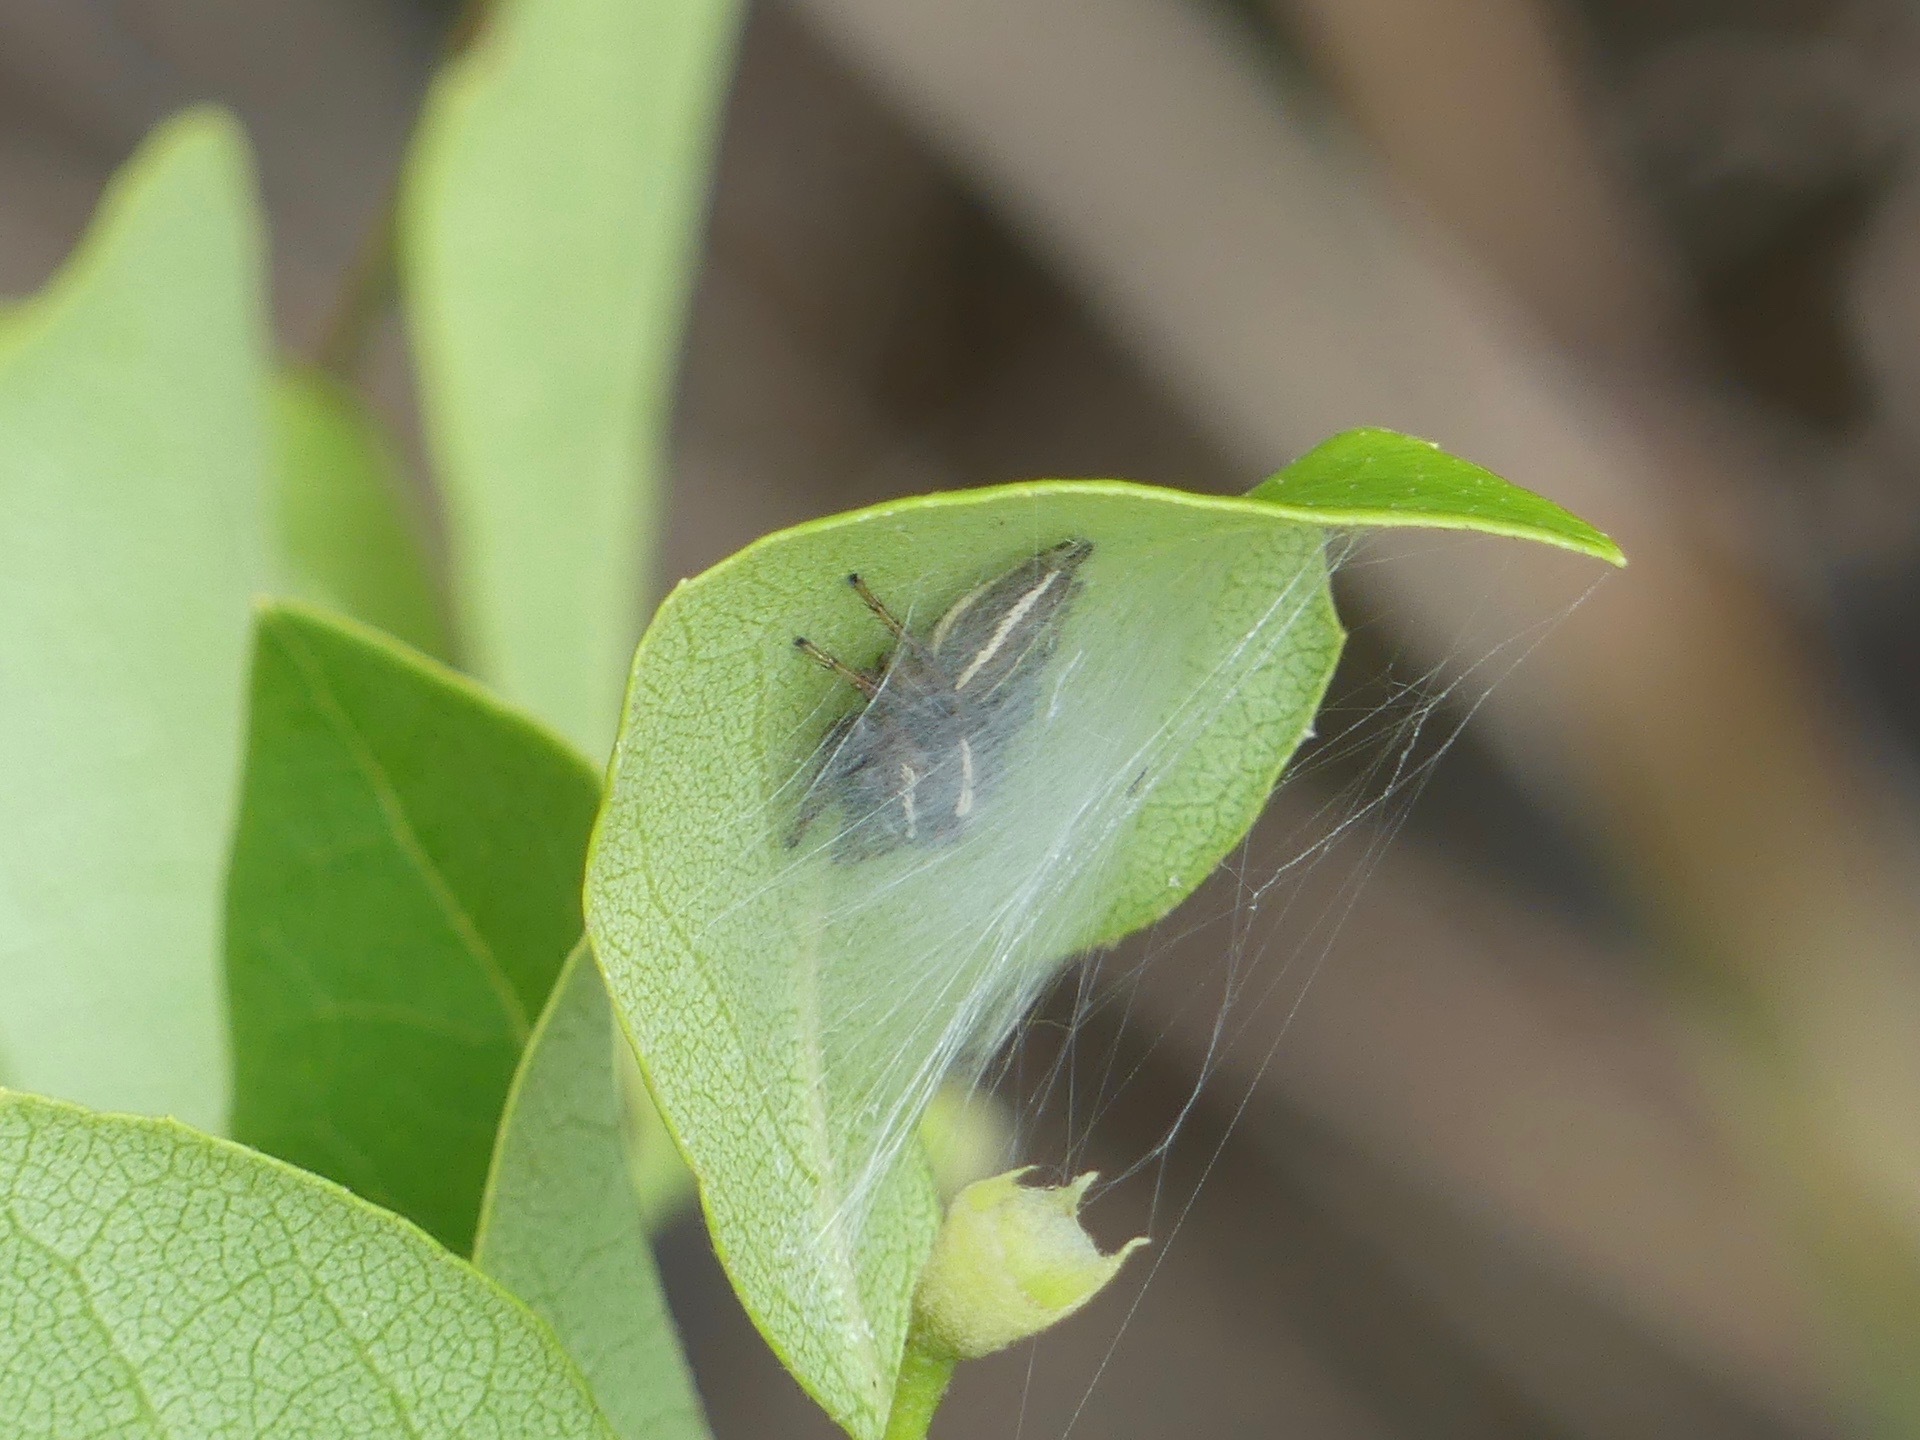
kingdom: Animalia
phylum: Arthropoda
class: Arachnida
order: Araneae
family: Salticidae
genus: Colonus
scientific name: Colonus puerperus
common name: Jumping spiders
